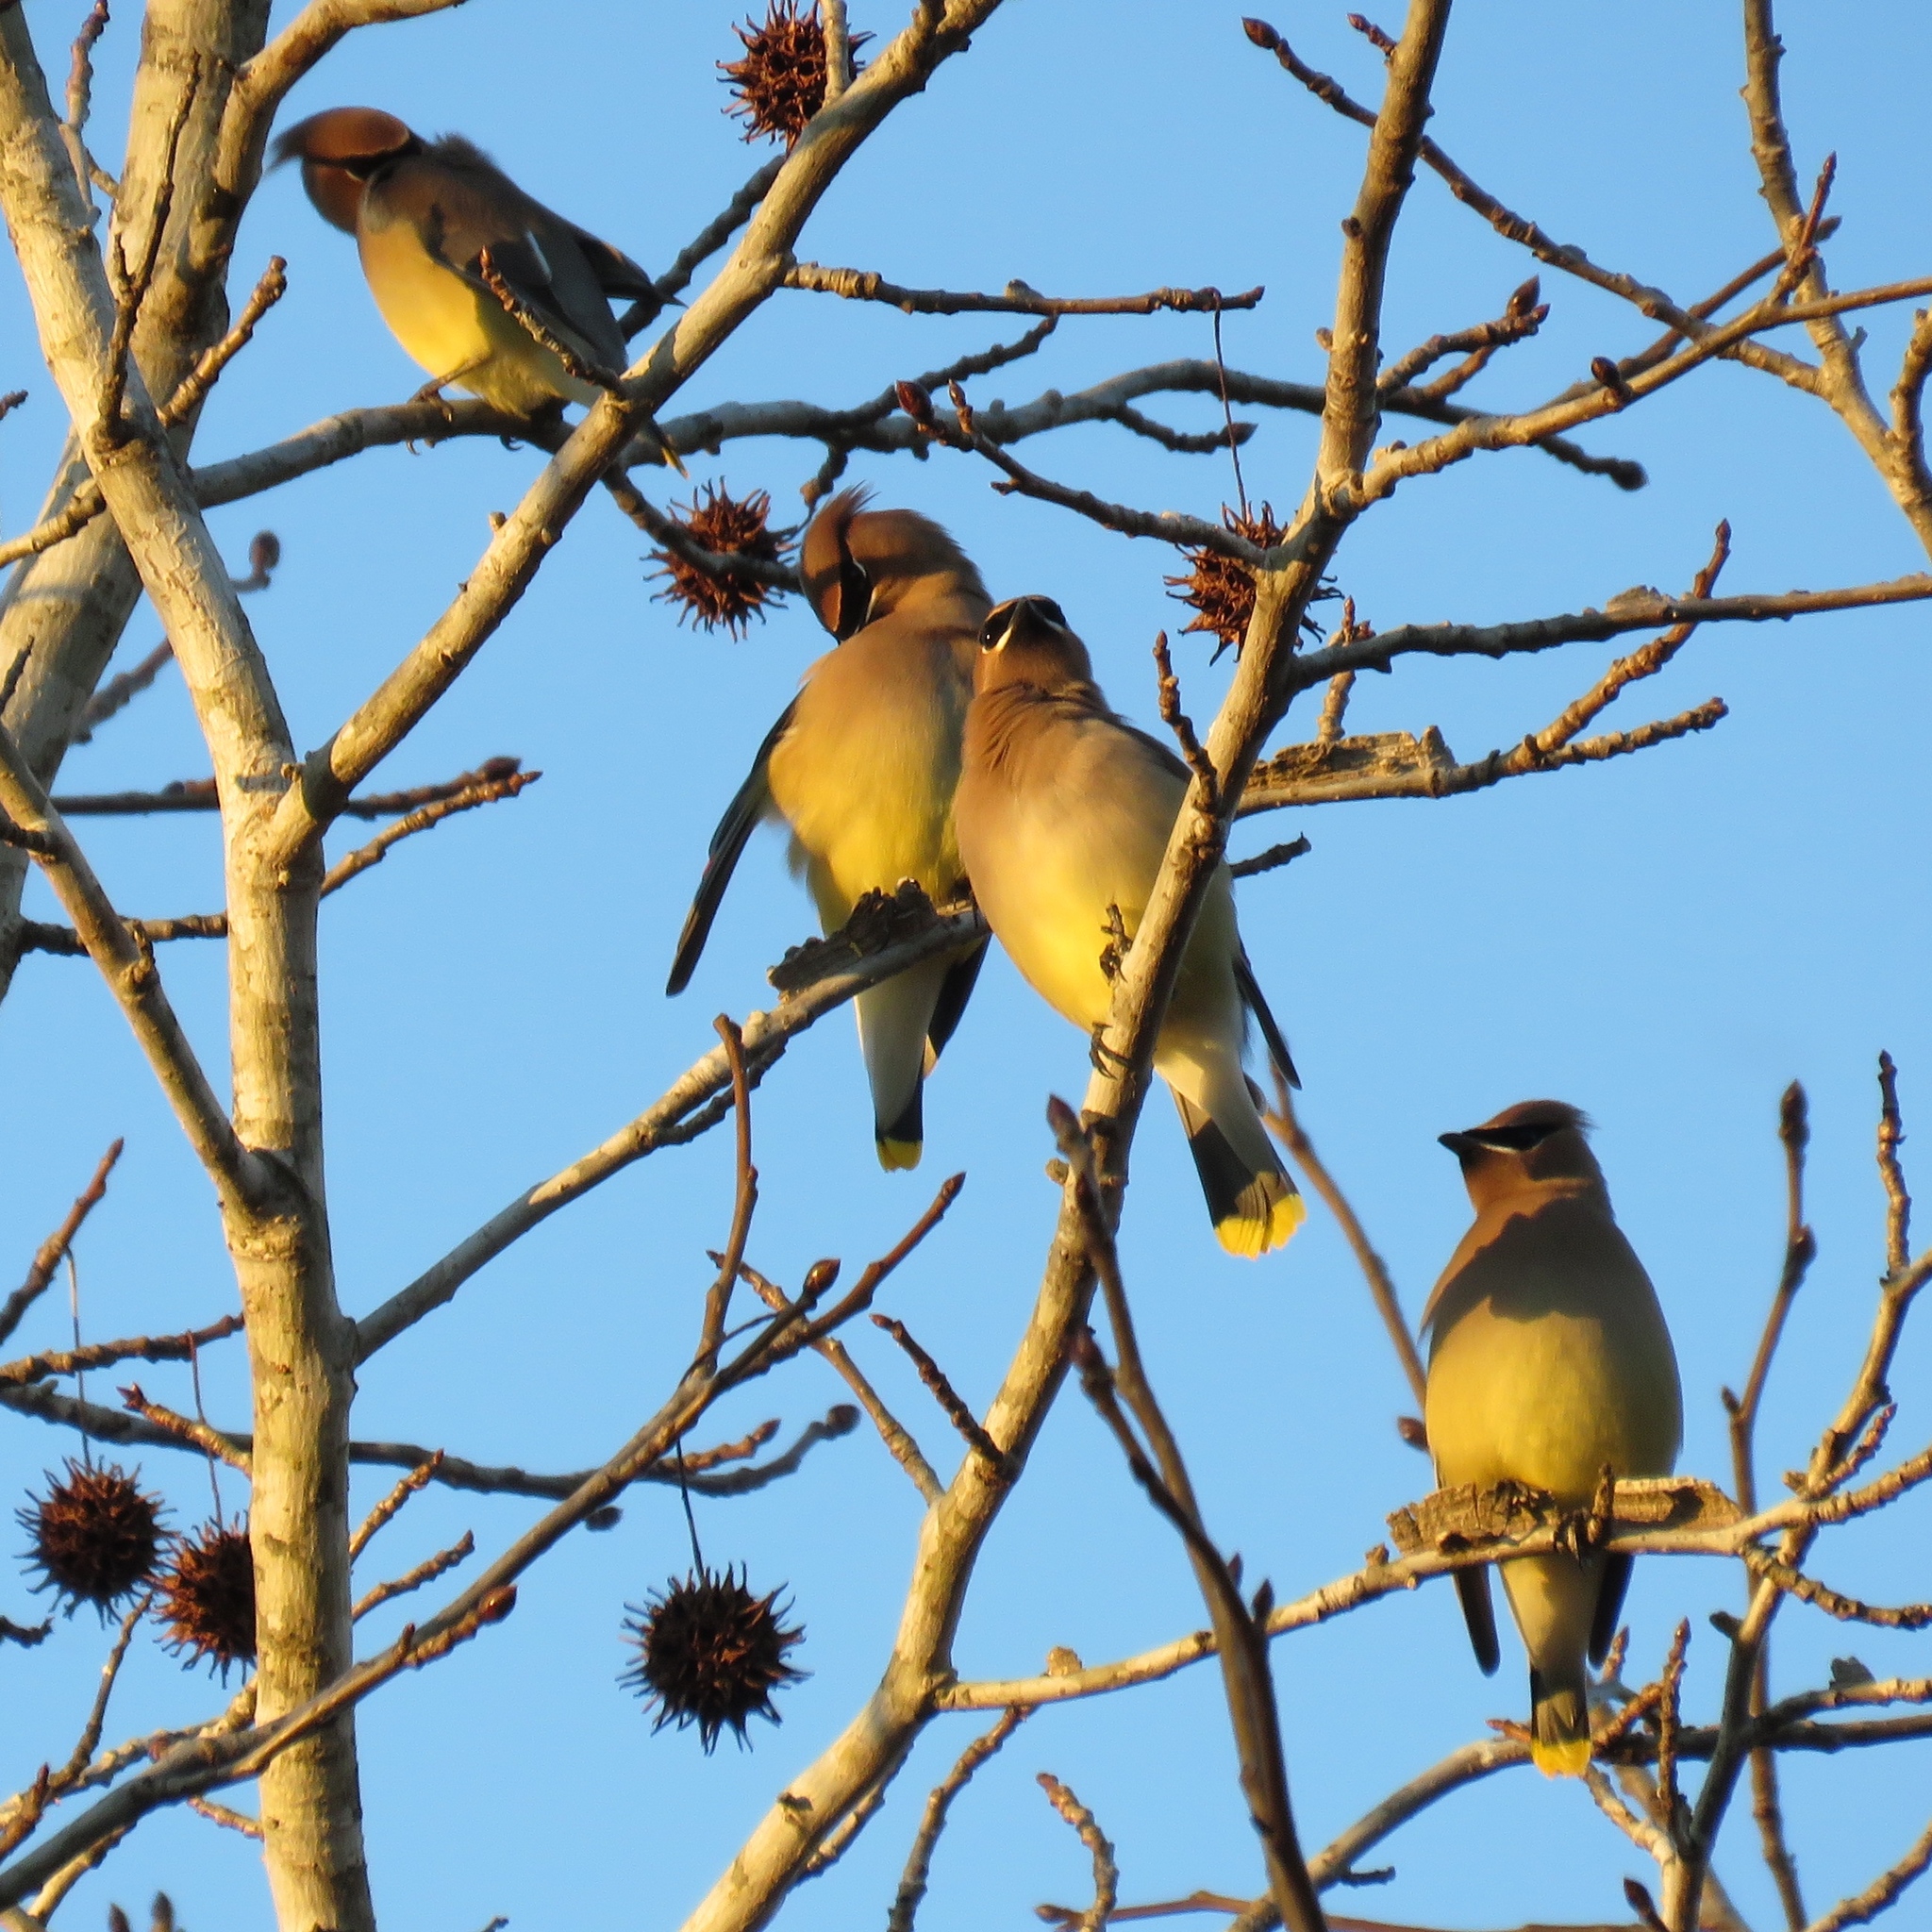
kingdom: Animalia
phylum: Chordata
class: Aves
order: Passeriformes
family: Bombycillidae
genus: Bombycilla
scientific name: Bombycilla cedrorum
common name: Cedar waxwing
